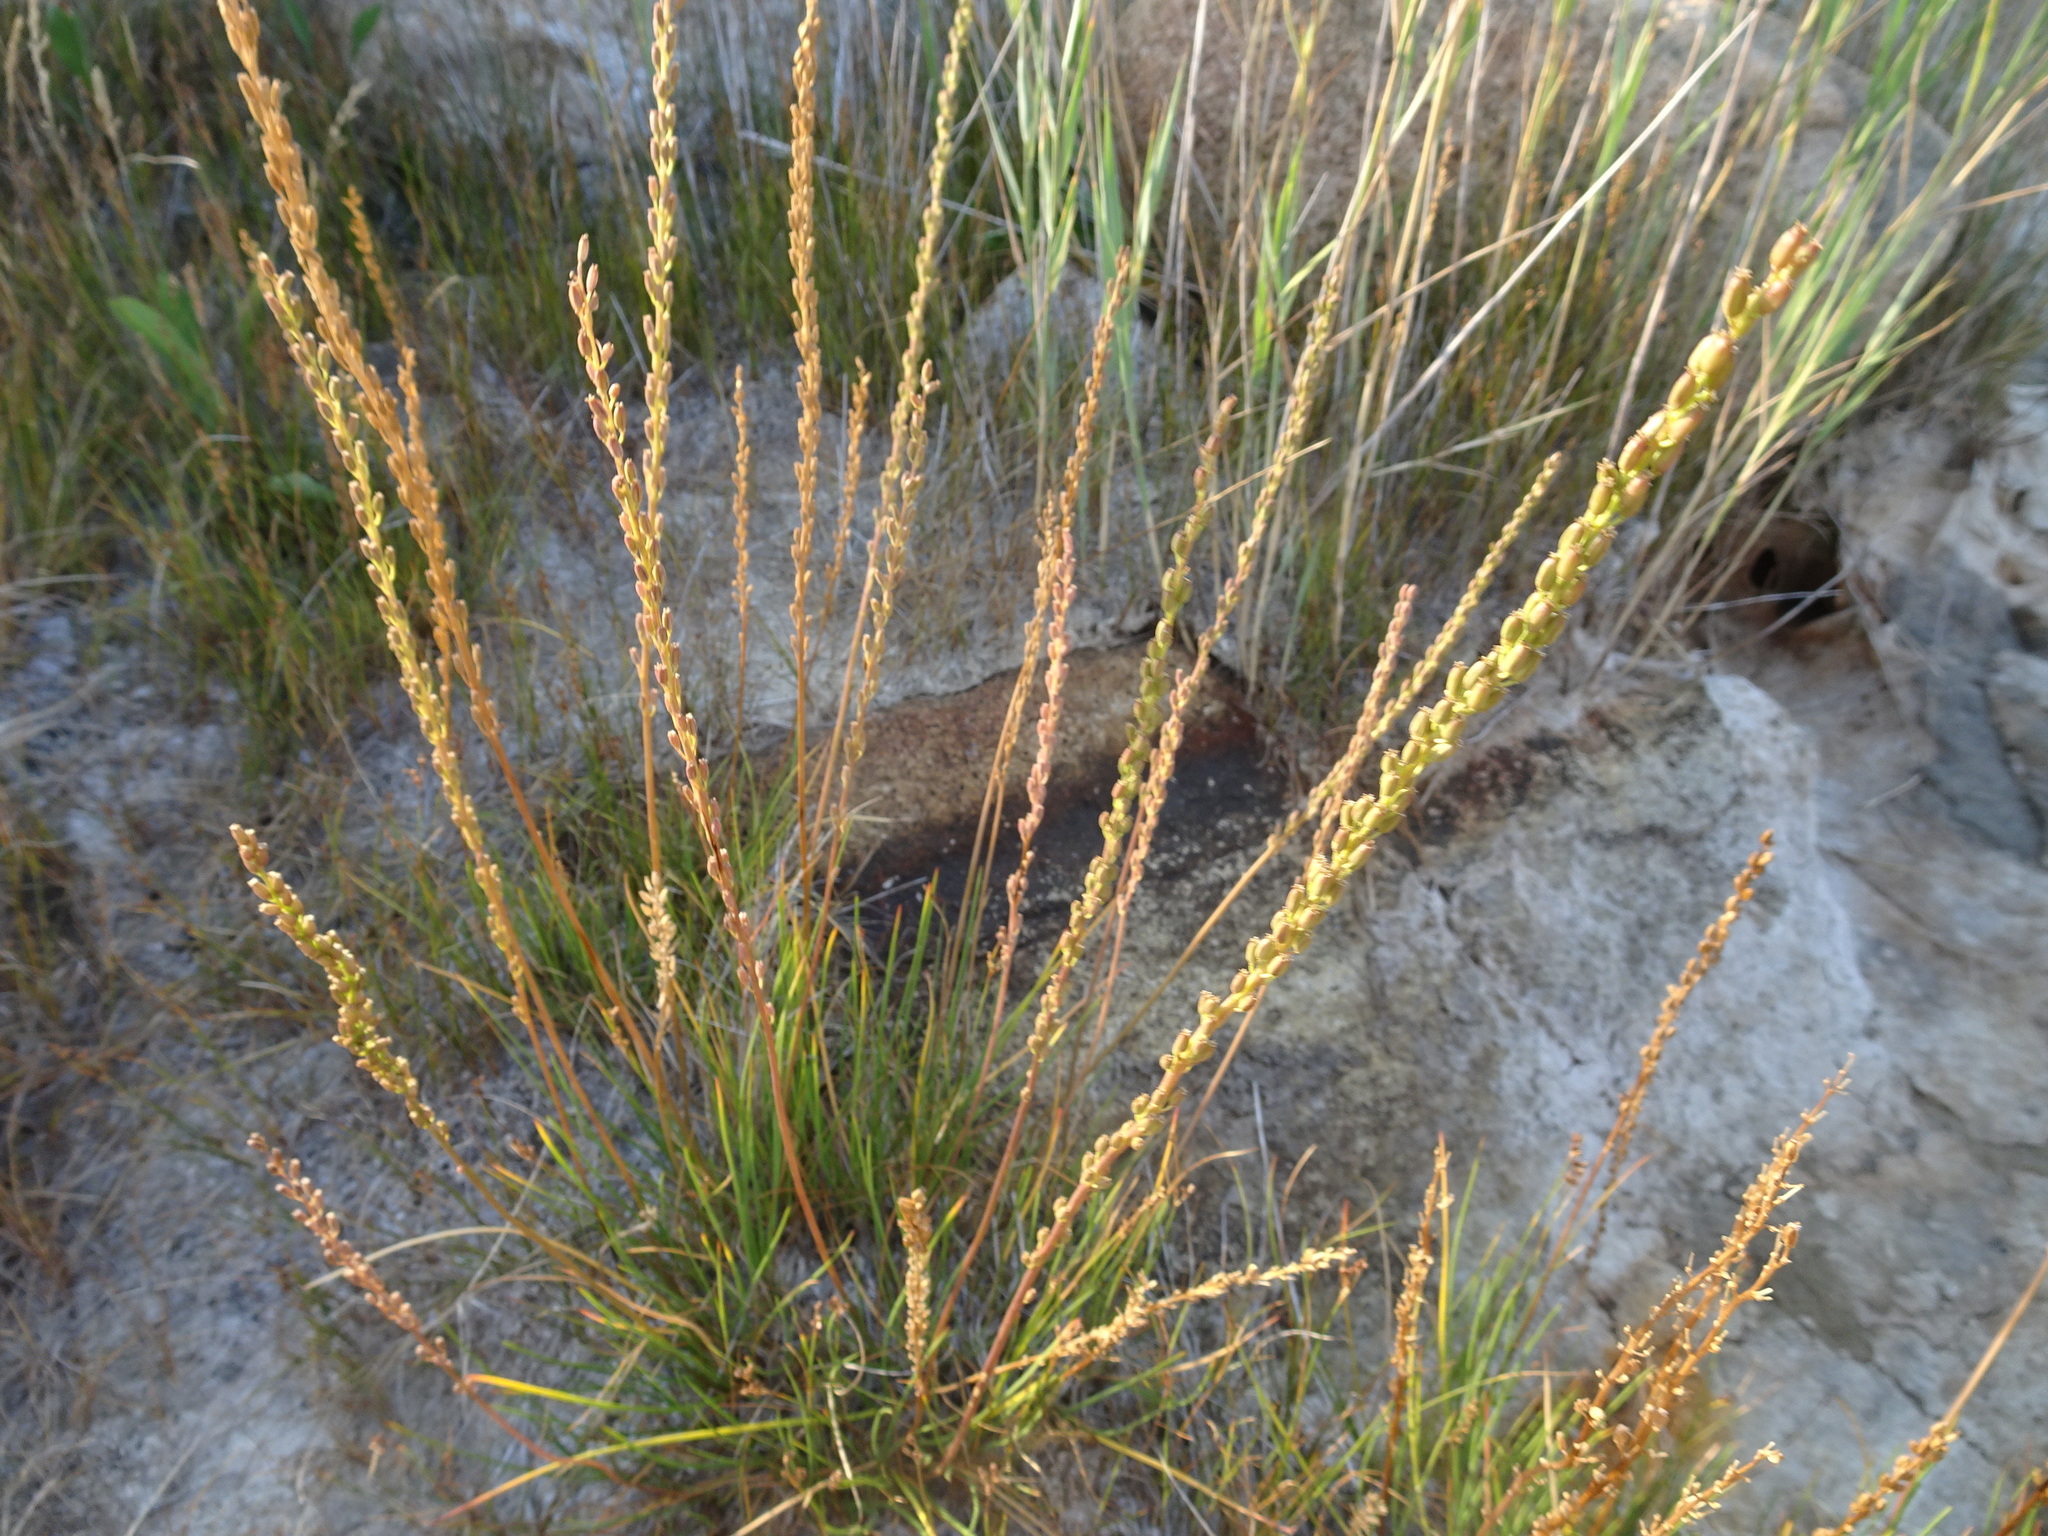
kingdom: Plantae
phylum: Tracheophyta
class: Liliopsida
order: Alismatales
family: Juncaginaceae
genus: Triglochin
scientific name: Triglochin maritima
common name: Sea arrowgrass
